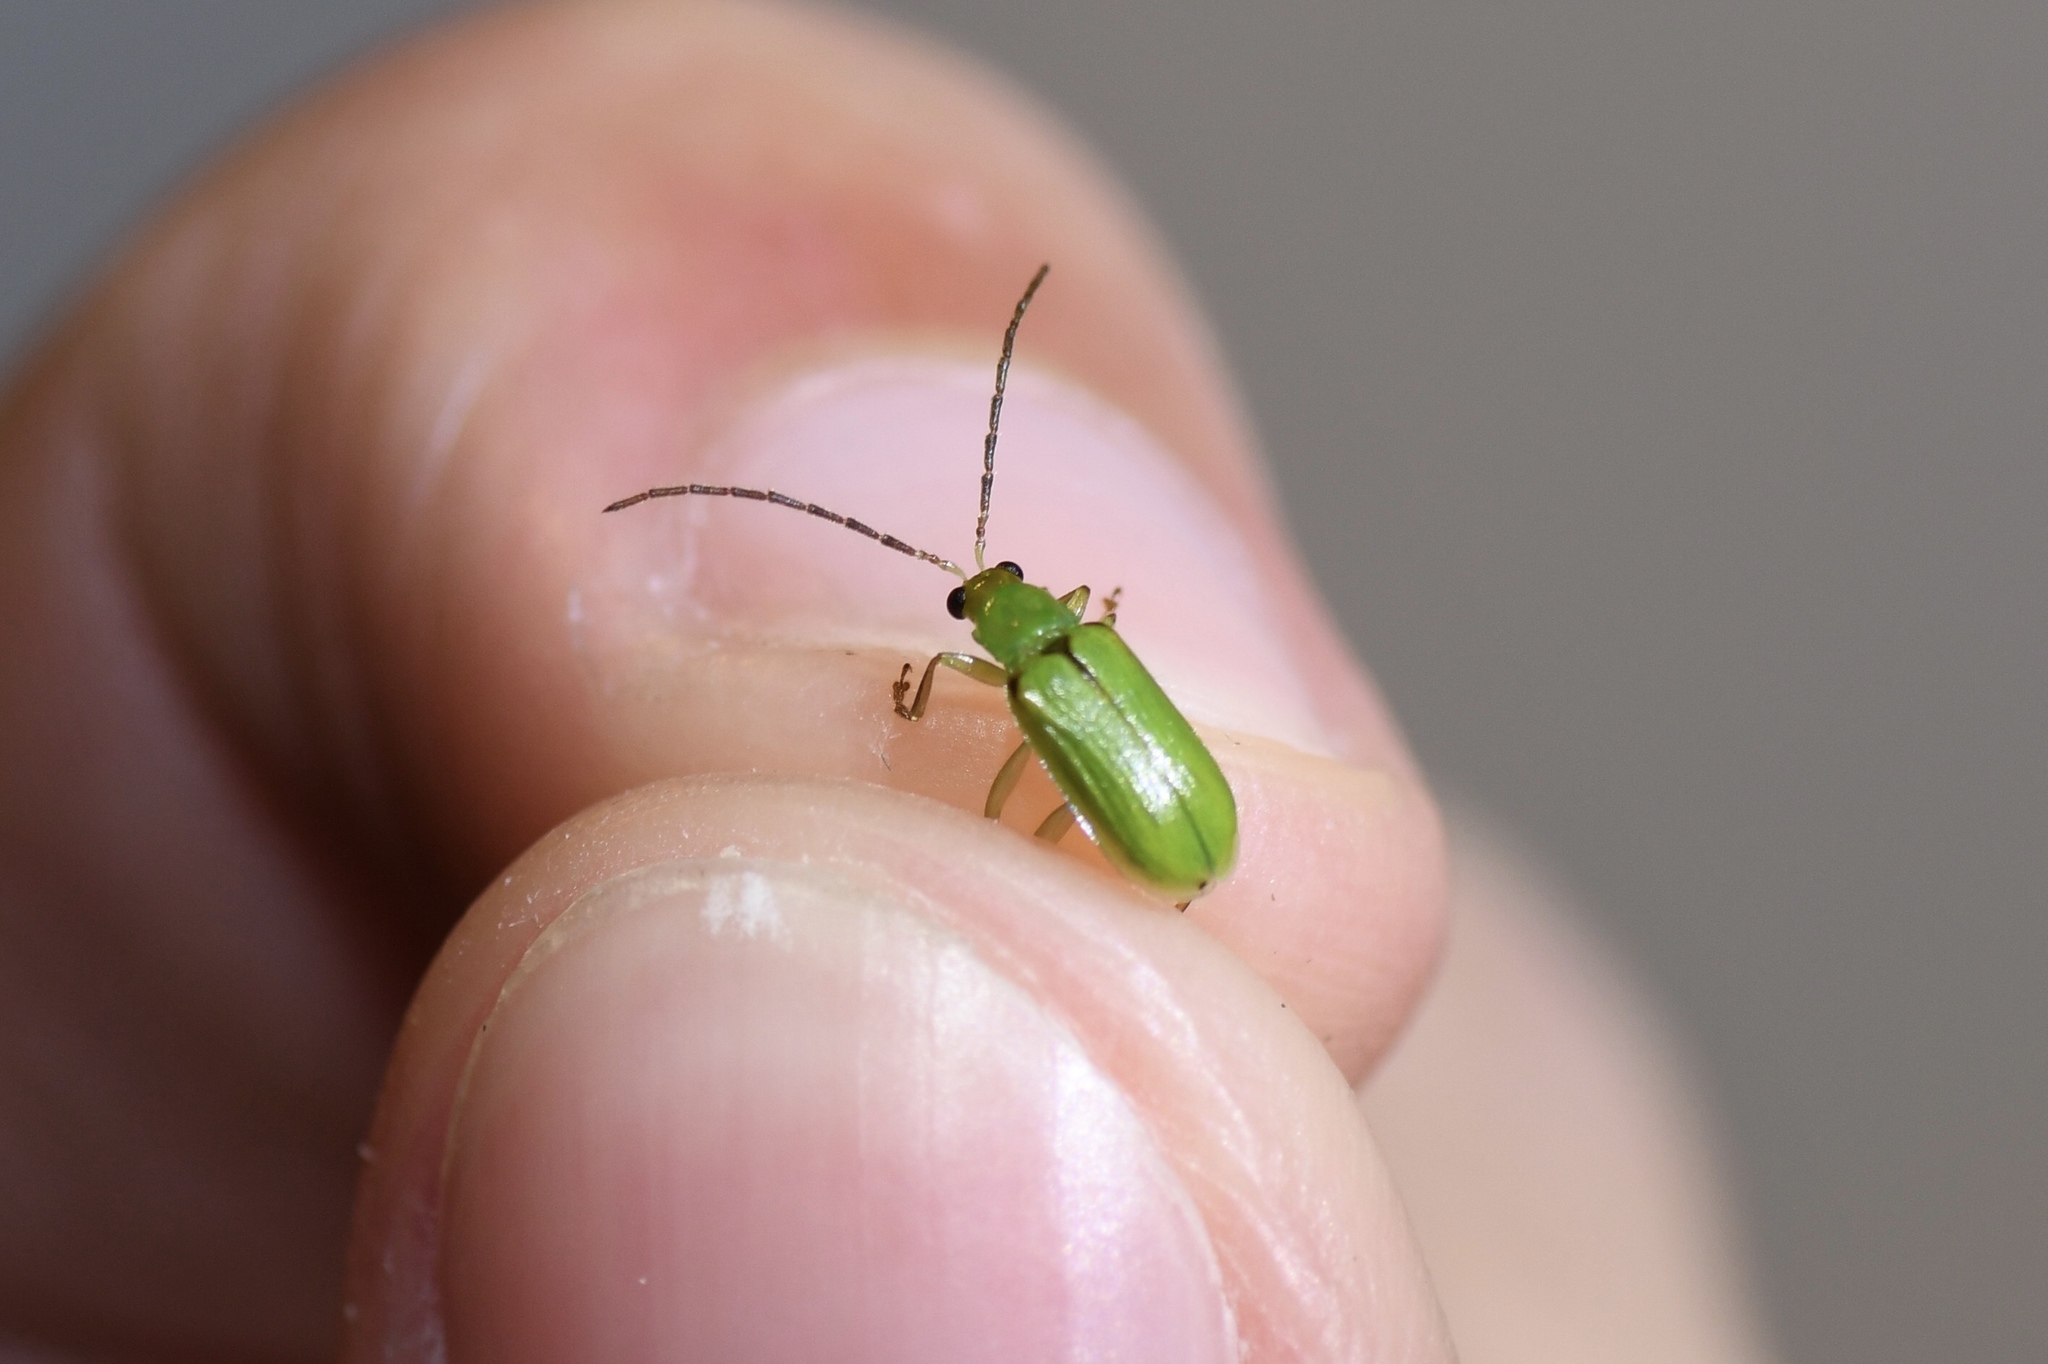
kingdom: Animalia
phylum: Arthropoda
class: Insecta
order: Coleoptera
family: Chrysomelidae
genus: Diabrotica
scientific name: Diabrotica barberi
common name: Northern corn rootworm
